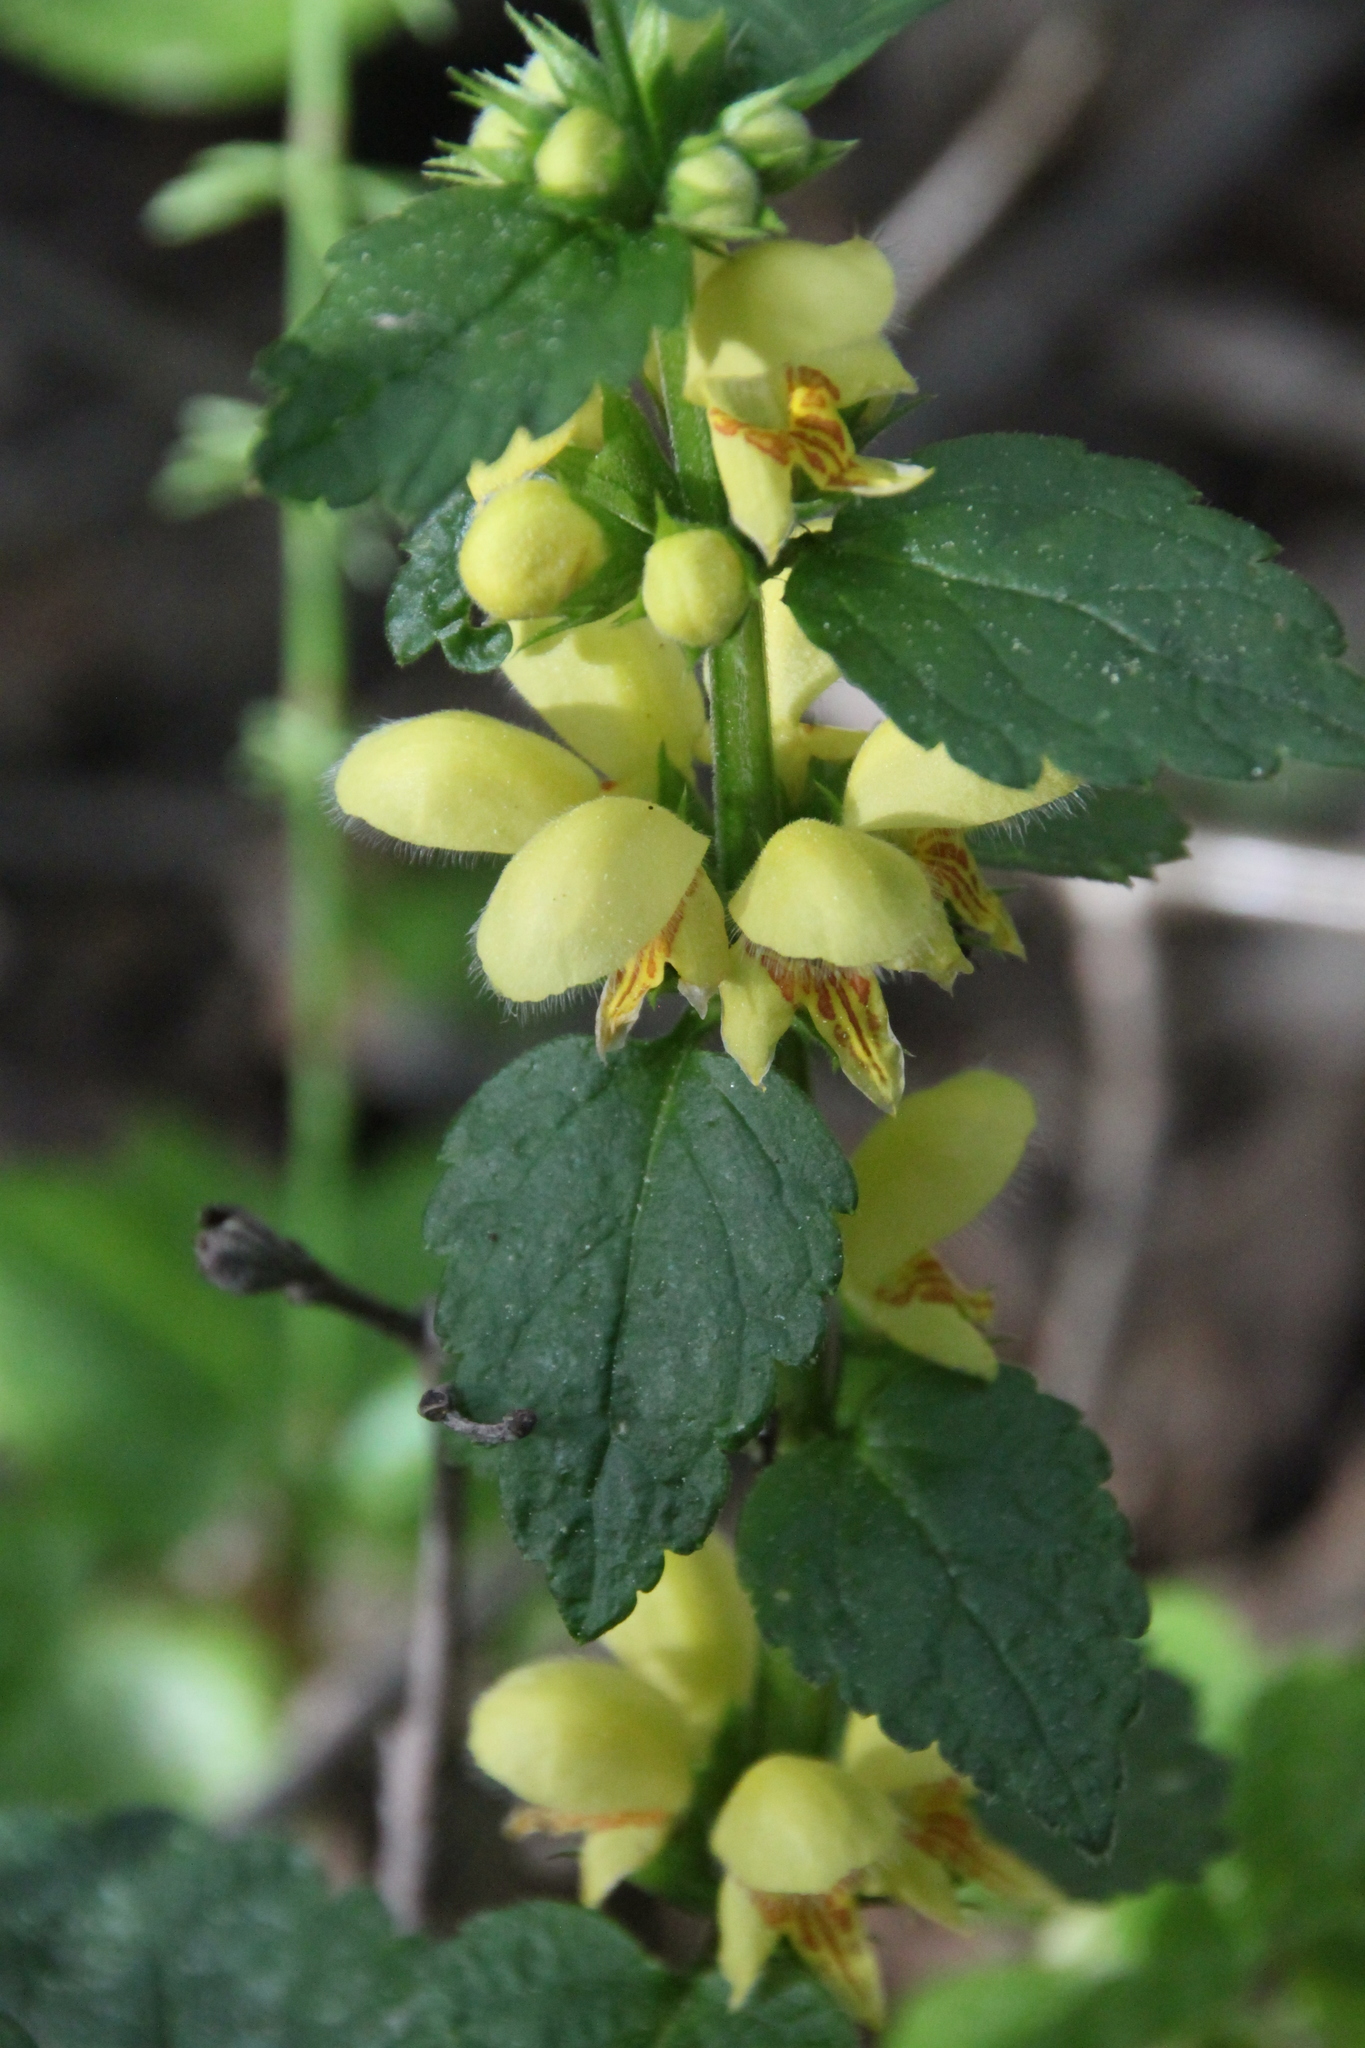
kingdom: Plantae
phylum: Tracheophyta
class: Magnoliopsida
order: Lamiales
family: Lamiaceae
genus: Lamium
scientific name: Lamium galeobdolon
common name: Yellow archangel
